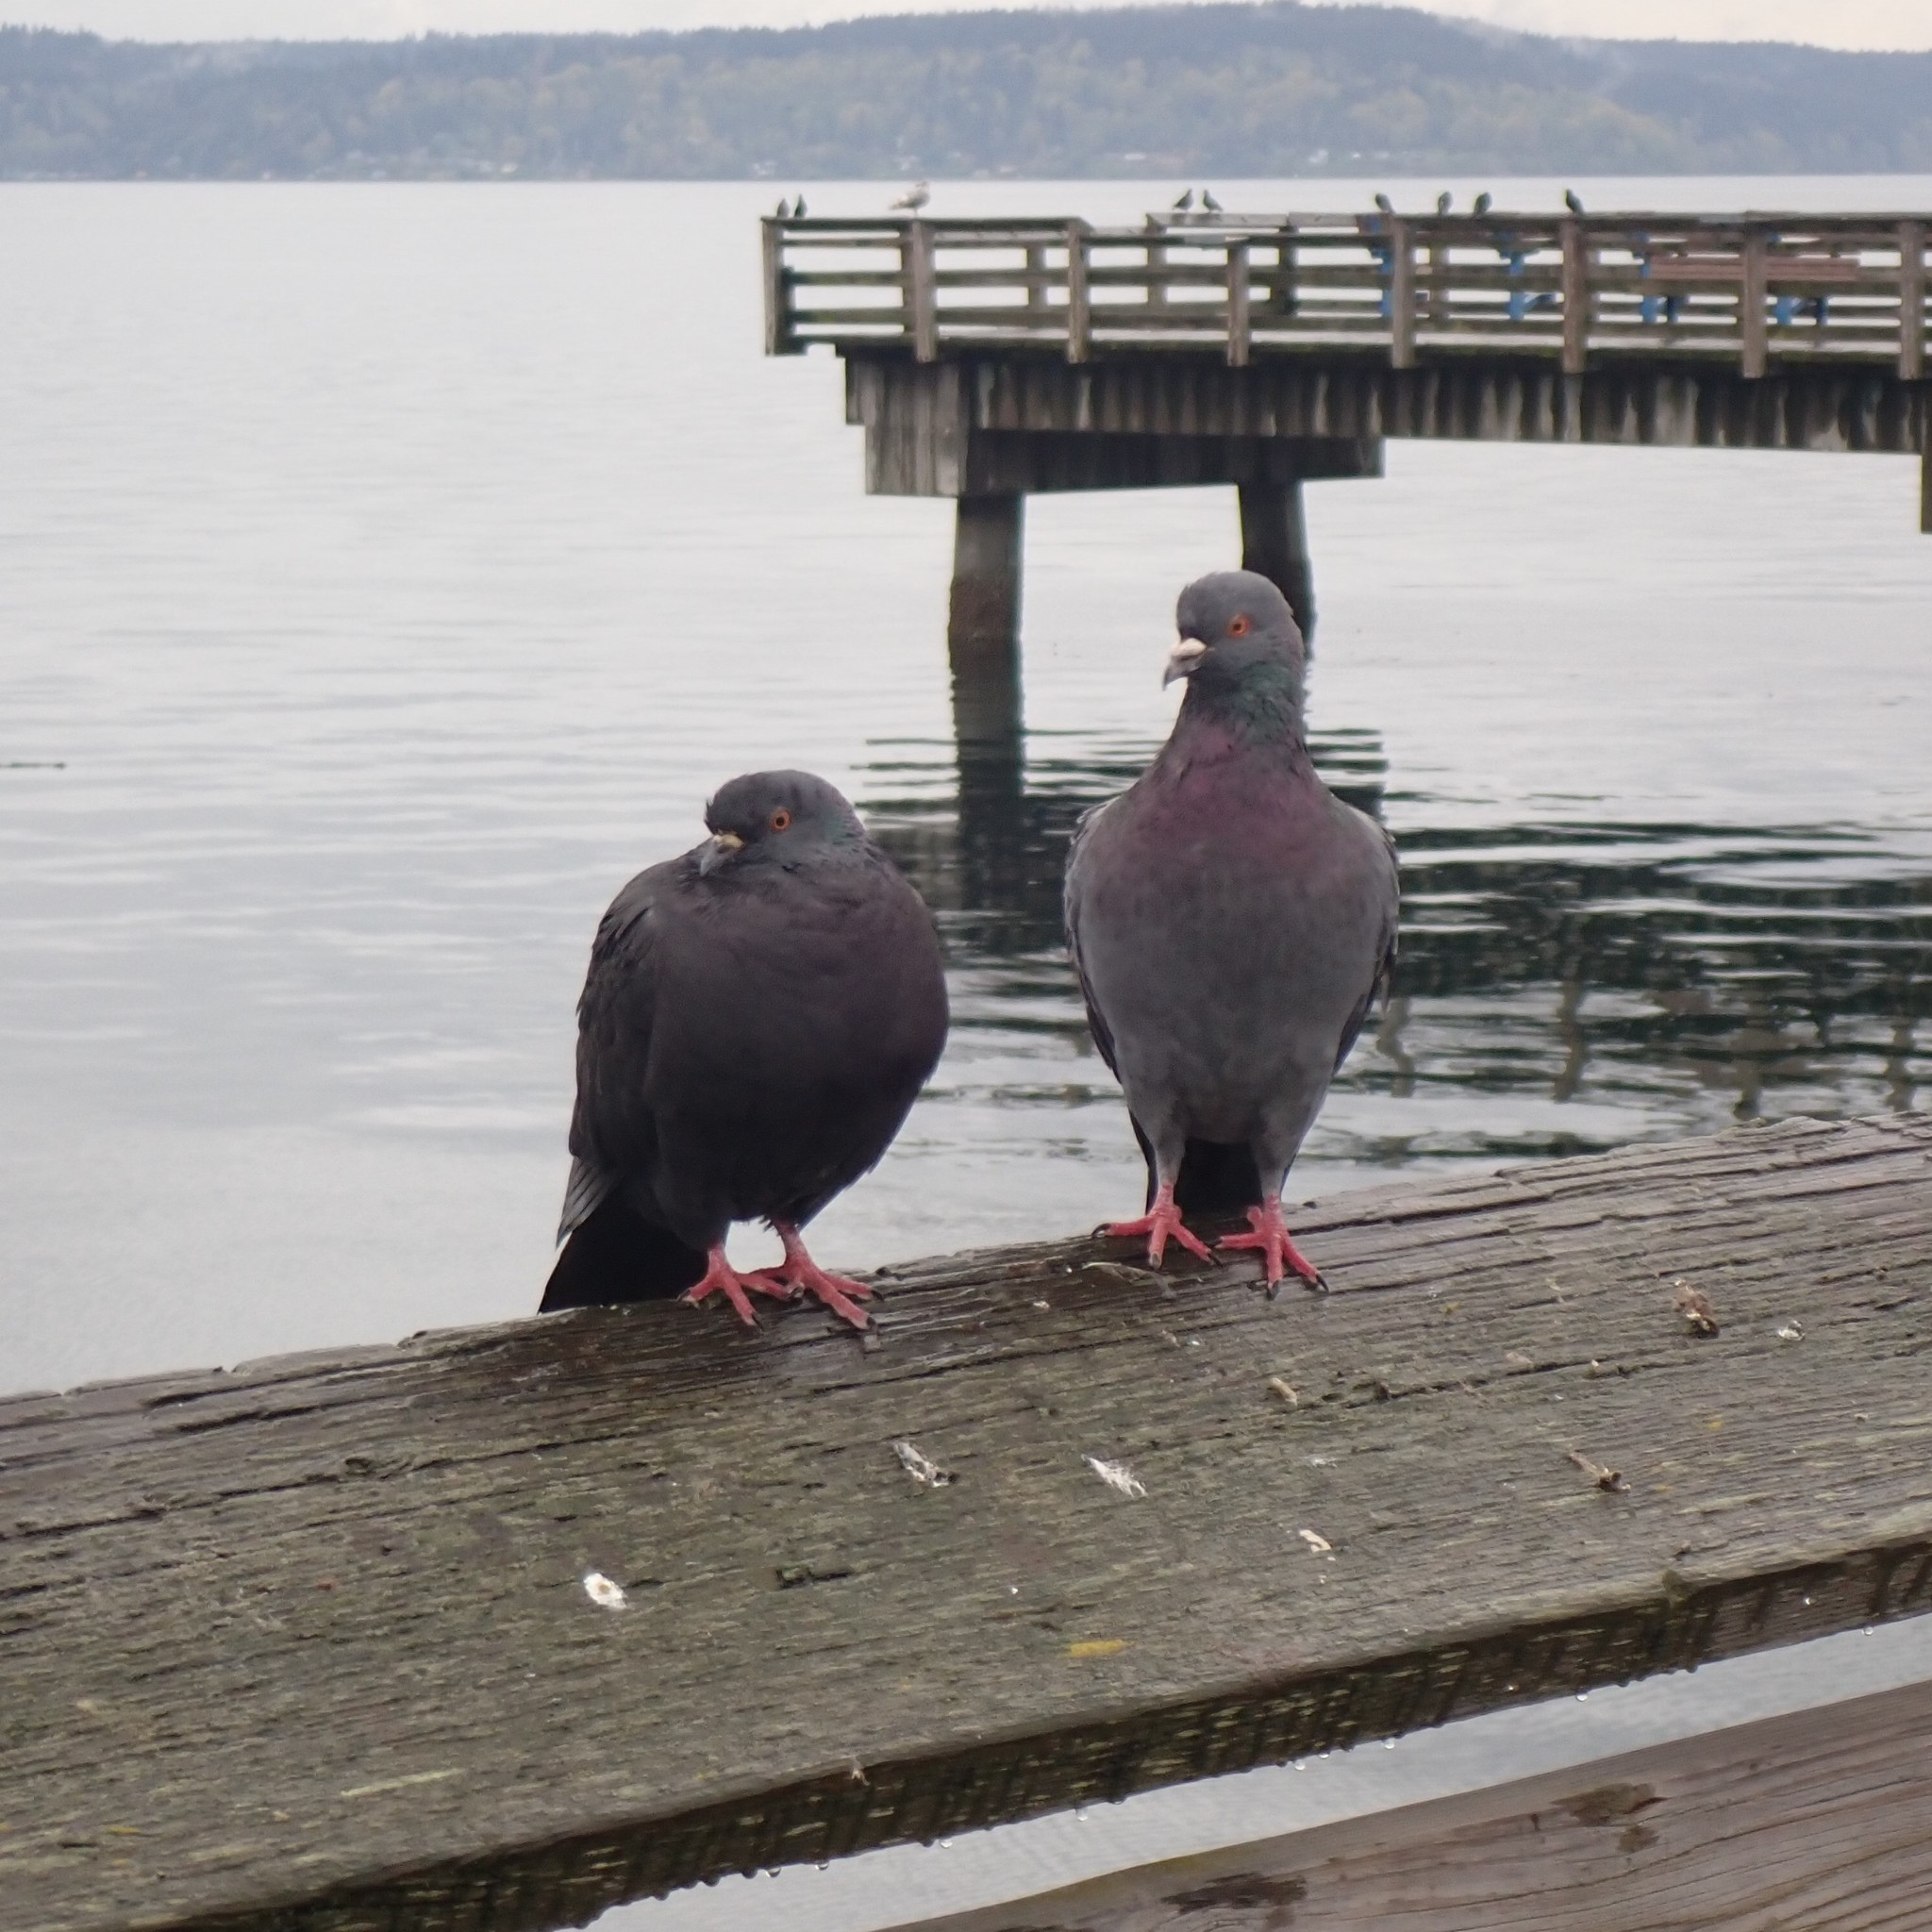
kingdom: Animalia
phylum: Chordata
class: Aves
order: Columbiformes
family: Columbidae
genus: Columba
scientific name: Columba livia
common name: Rock pigeon
